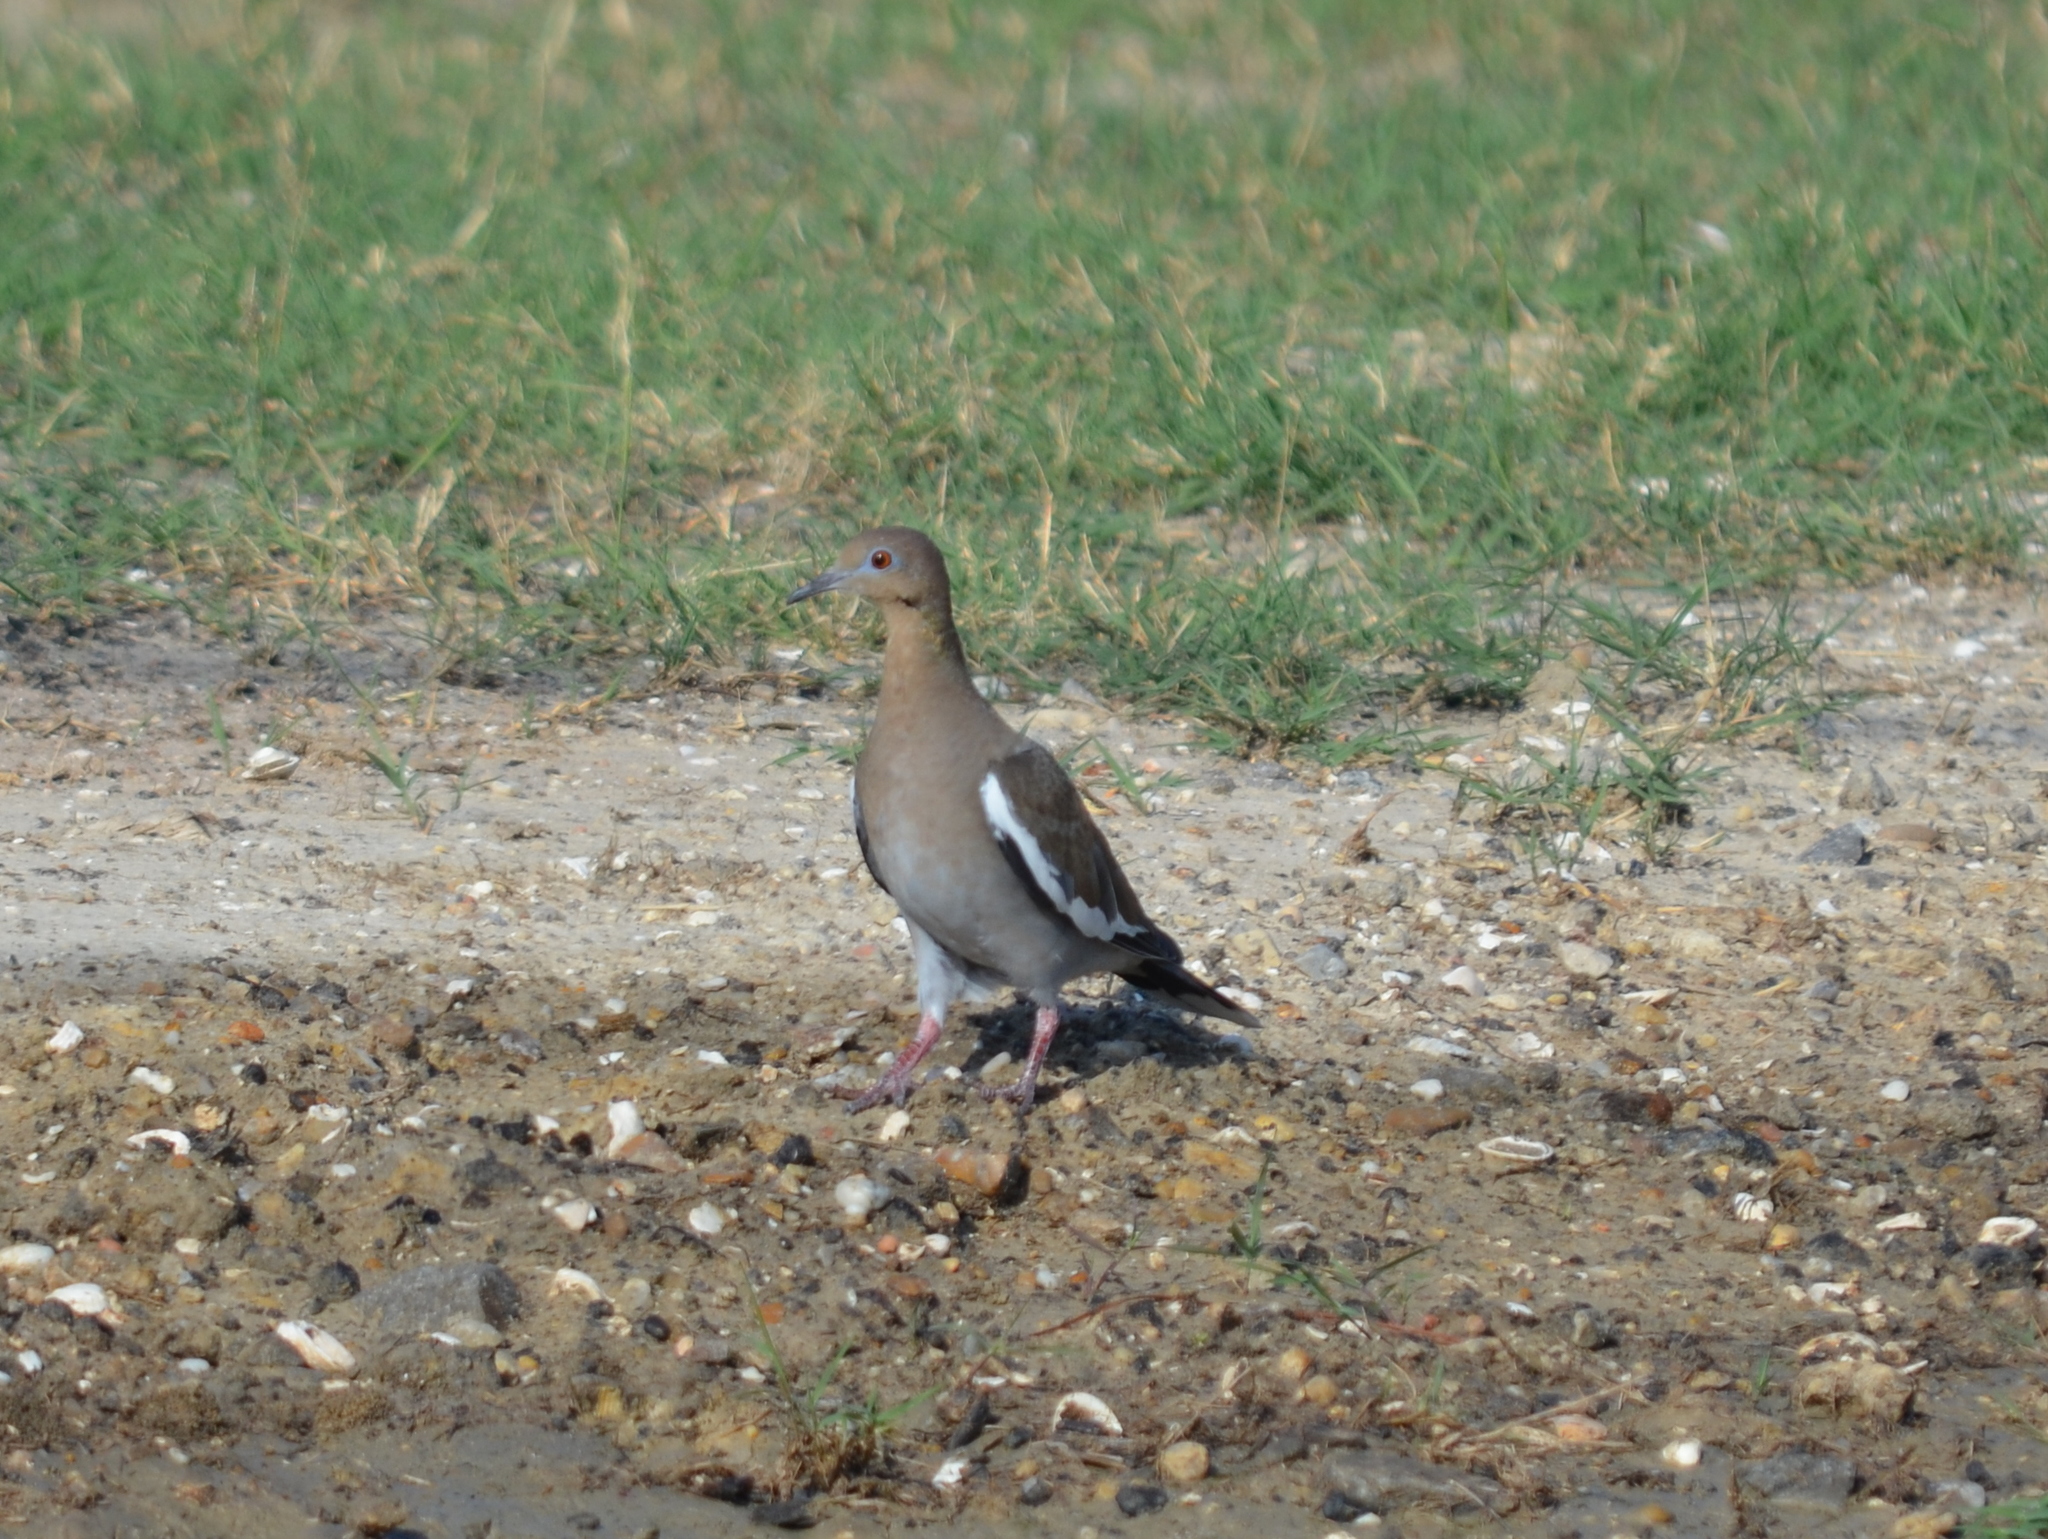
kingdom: Animalia
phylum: Chordata
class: Aves
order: Columbiformes
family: Columbidae
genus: Zenaida
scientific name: Zenaida asiatica
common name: White-winged dove
